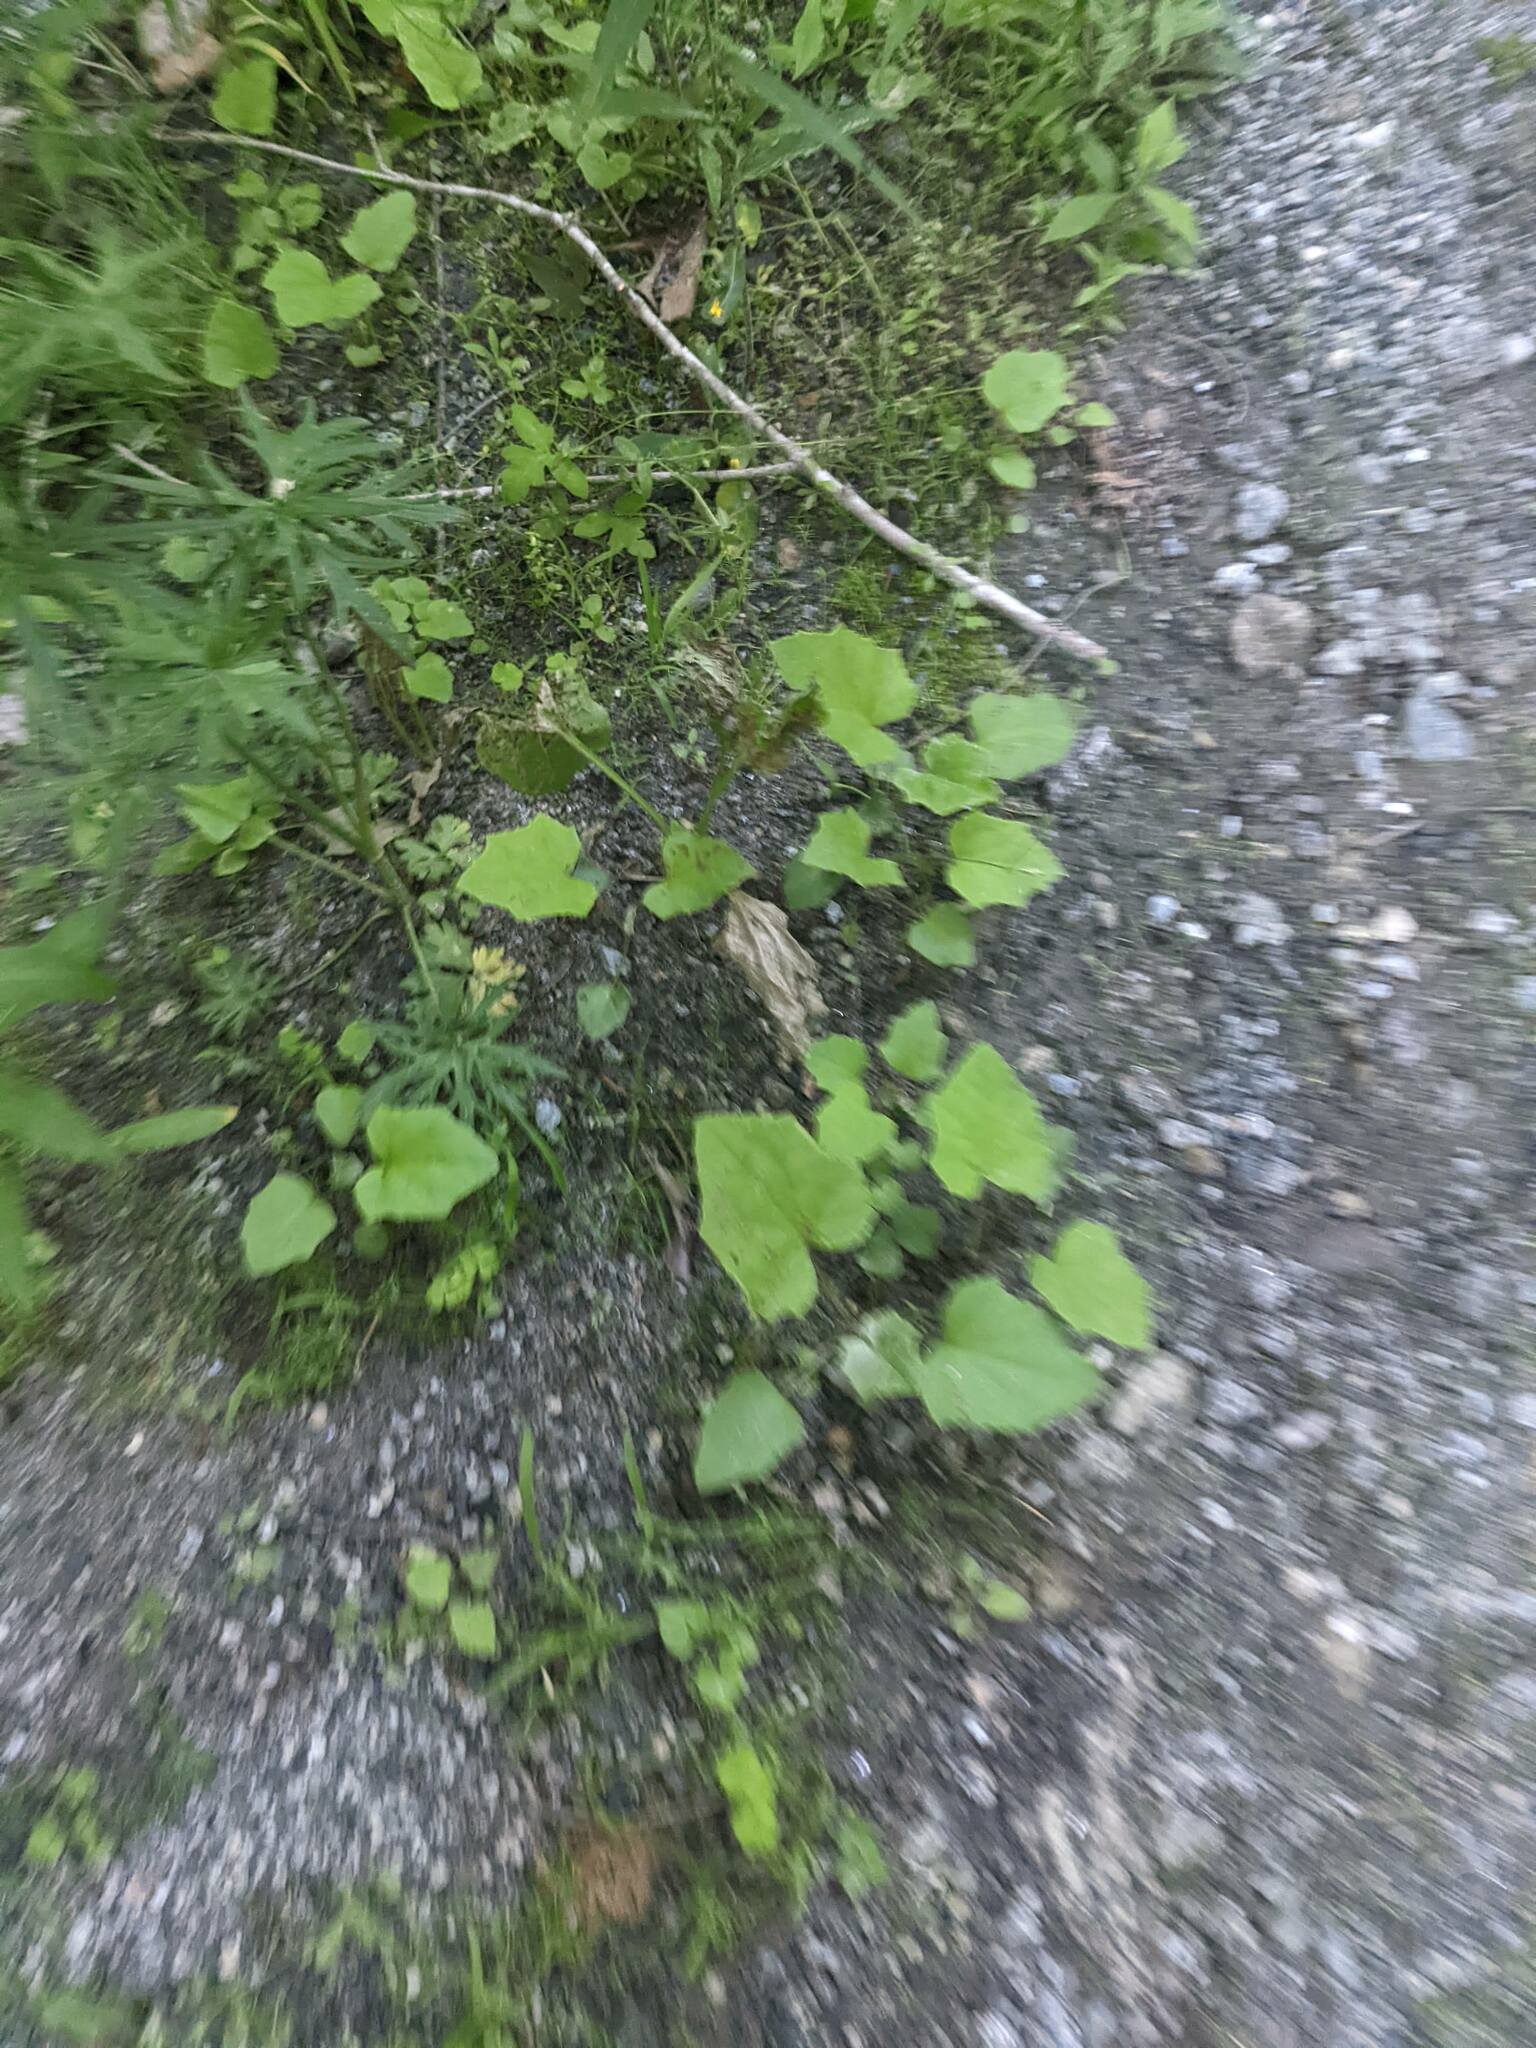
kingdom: Plantae
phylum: Tracheophyta
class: Magnoliopsida
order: Asterales
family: Asteraceae
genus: Tussilago
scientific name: Tussilago farfara
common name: Coltsfoot
